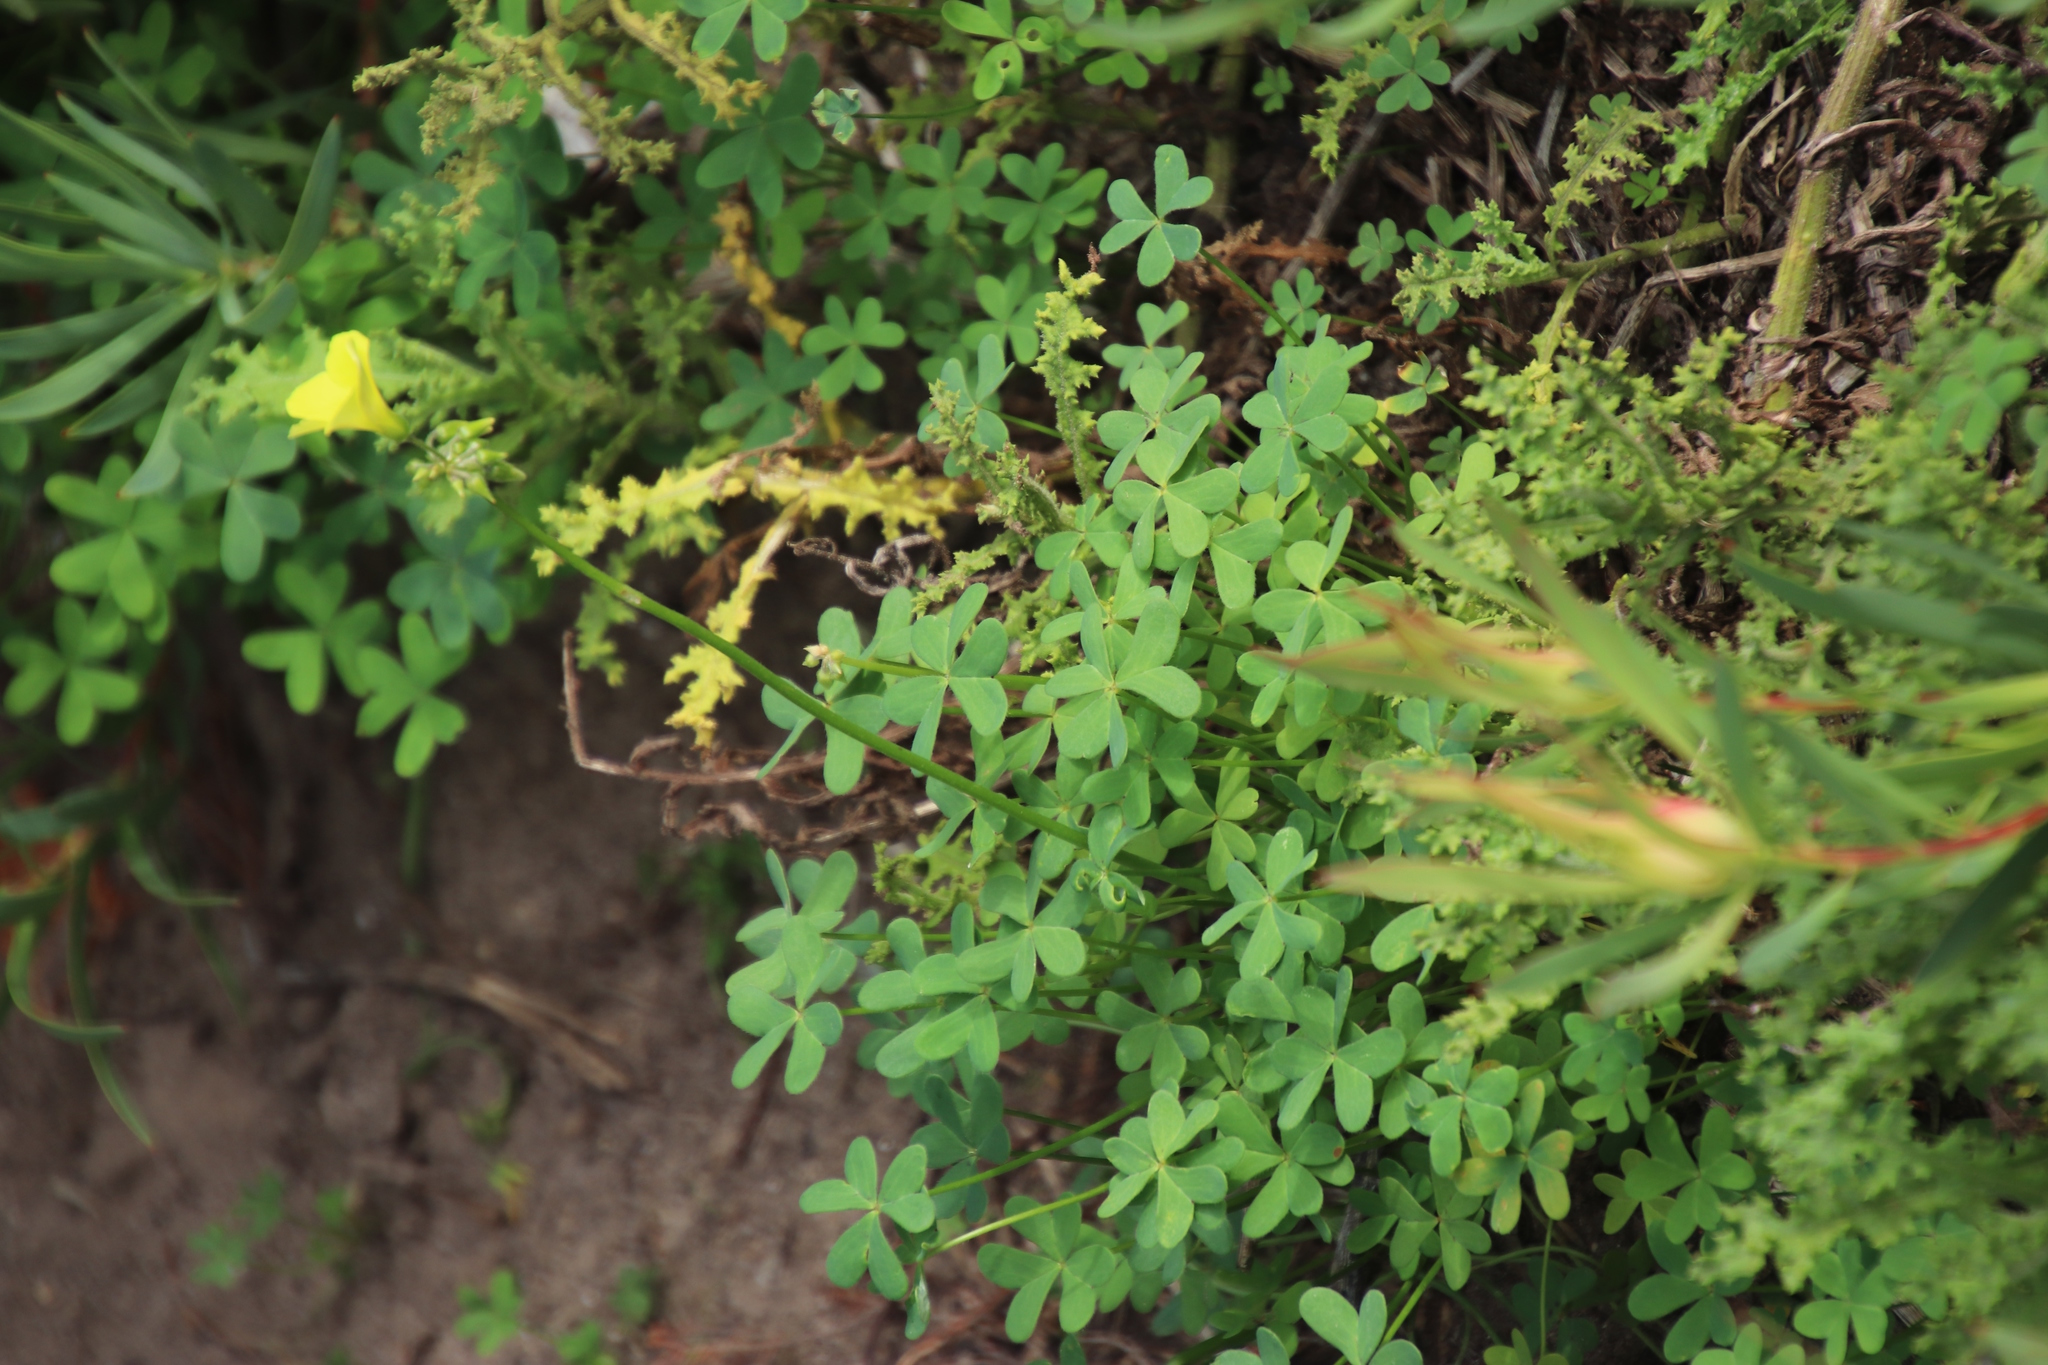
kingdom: Plantae
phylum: Tracheophyta
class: Magnoliopsida
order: Oxalidales
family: Oxalidaceae
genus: Oxalis
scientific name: Oxalis pes-caprae
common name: Bermuda-buttercup
